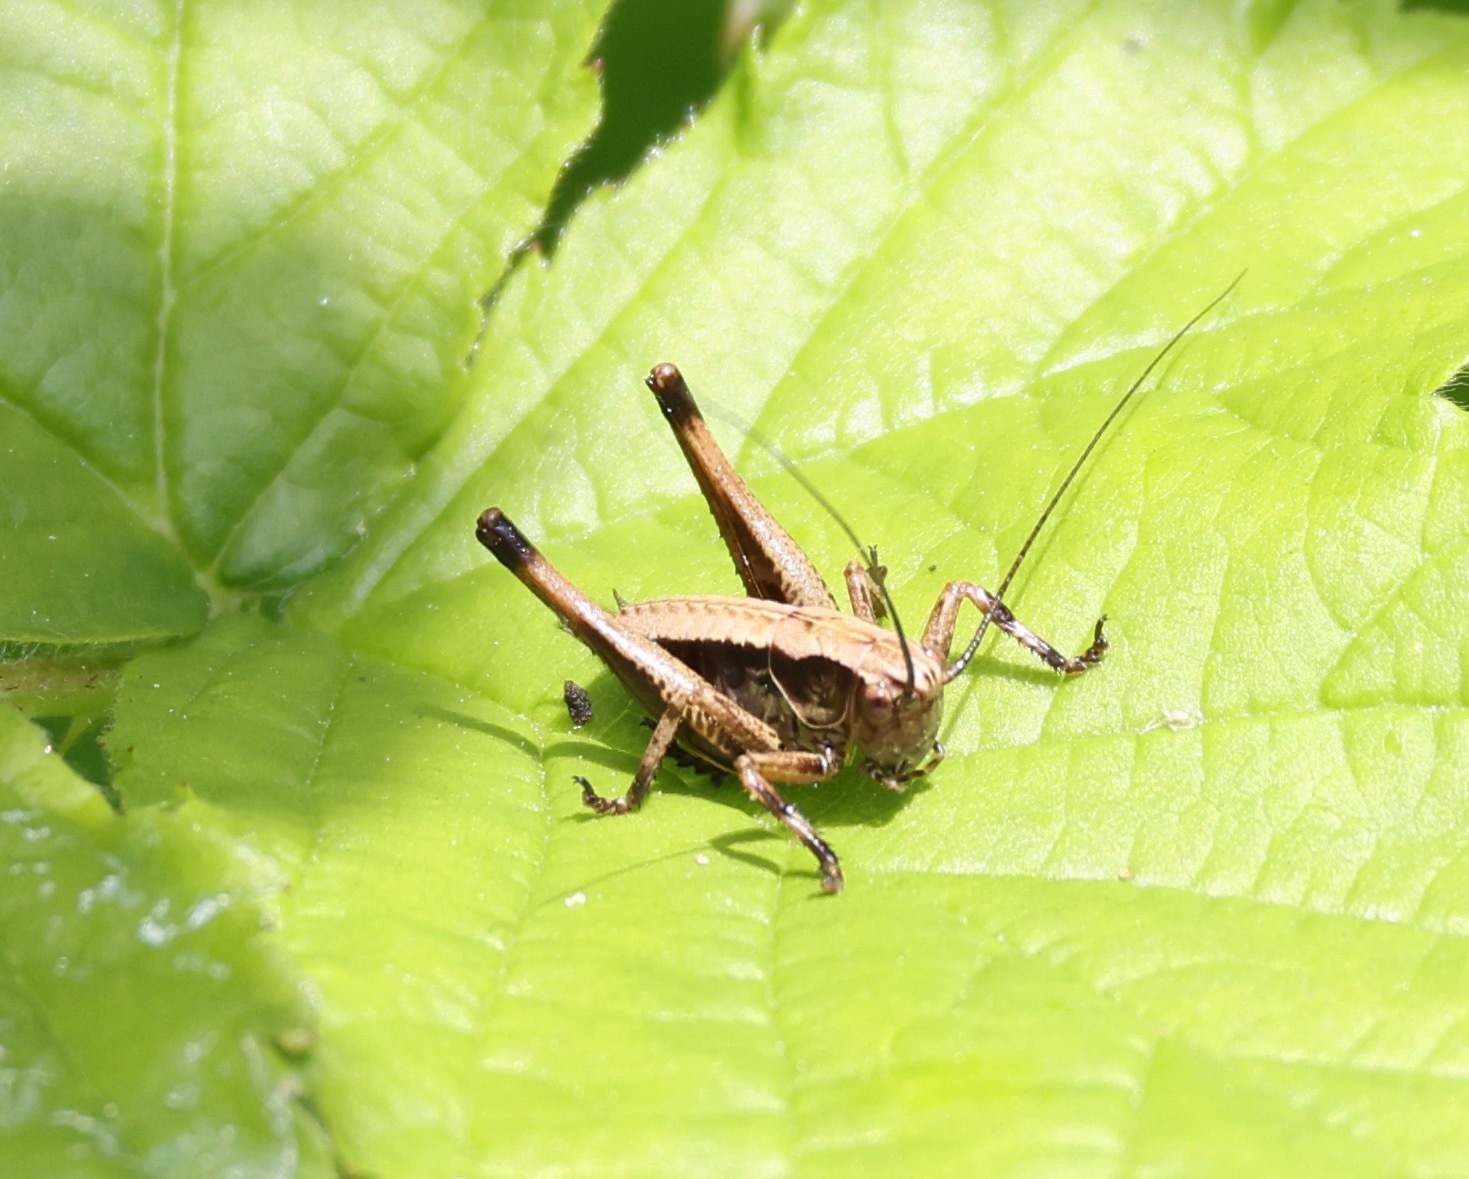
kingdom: Animalia
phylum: Arthropoda
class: Insecta
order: Orthoptera
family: Tettigoniidae
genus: Pholidoptera
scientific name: Pholidoptera griseoaptera
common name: Dark bush-cricket
